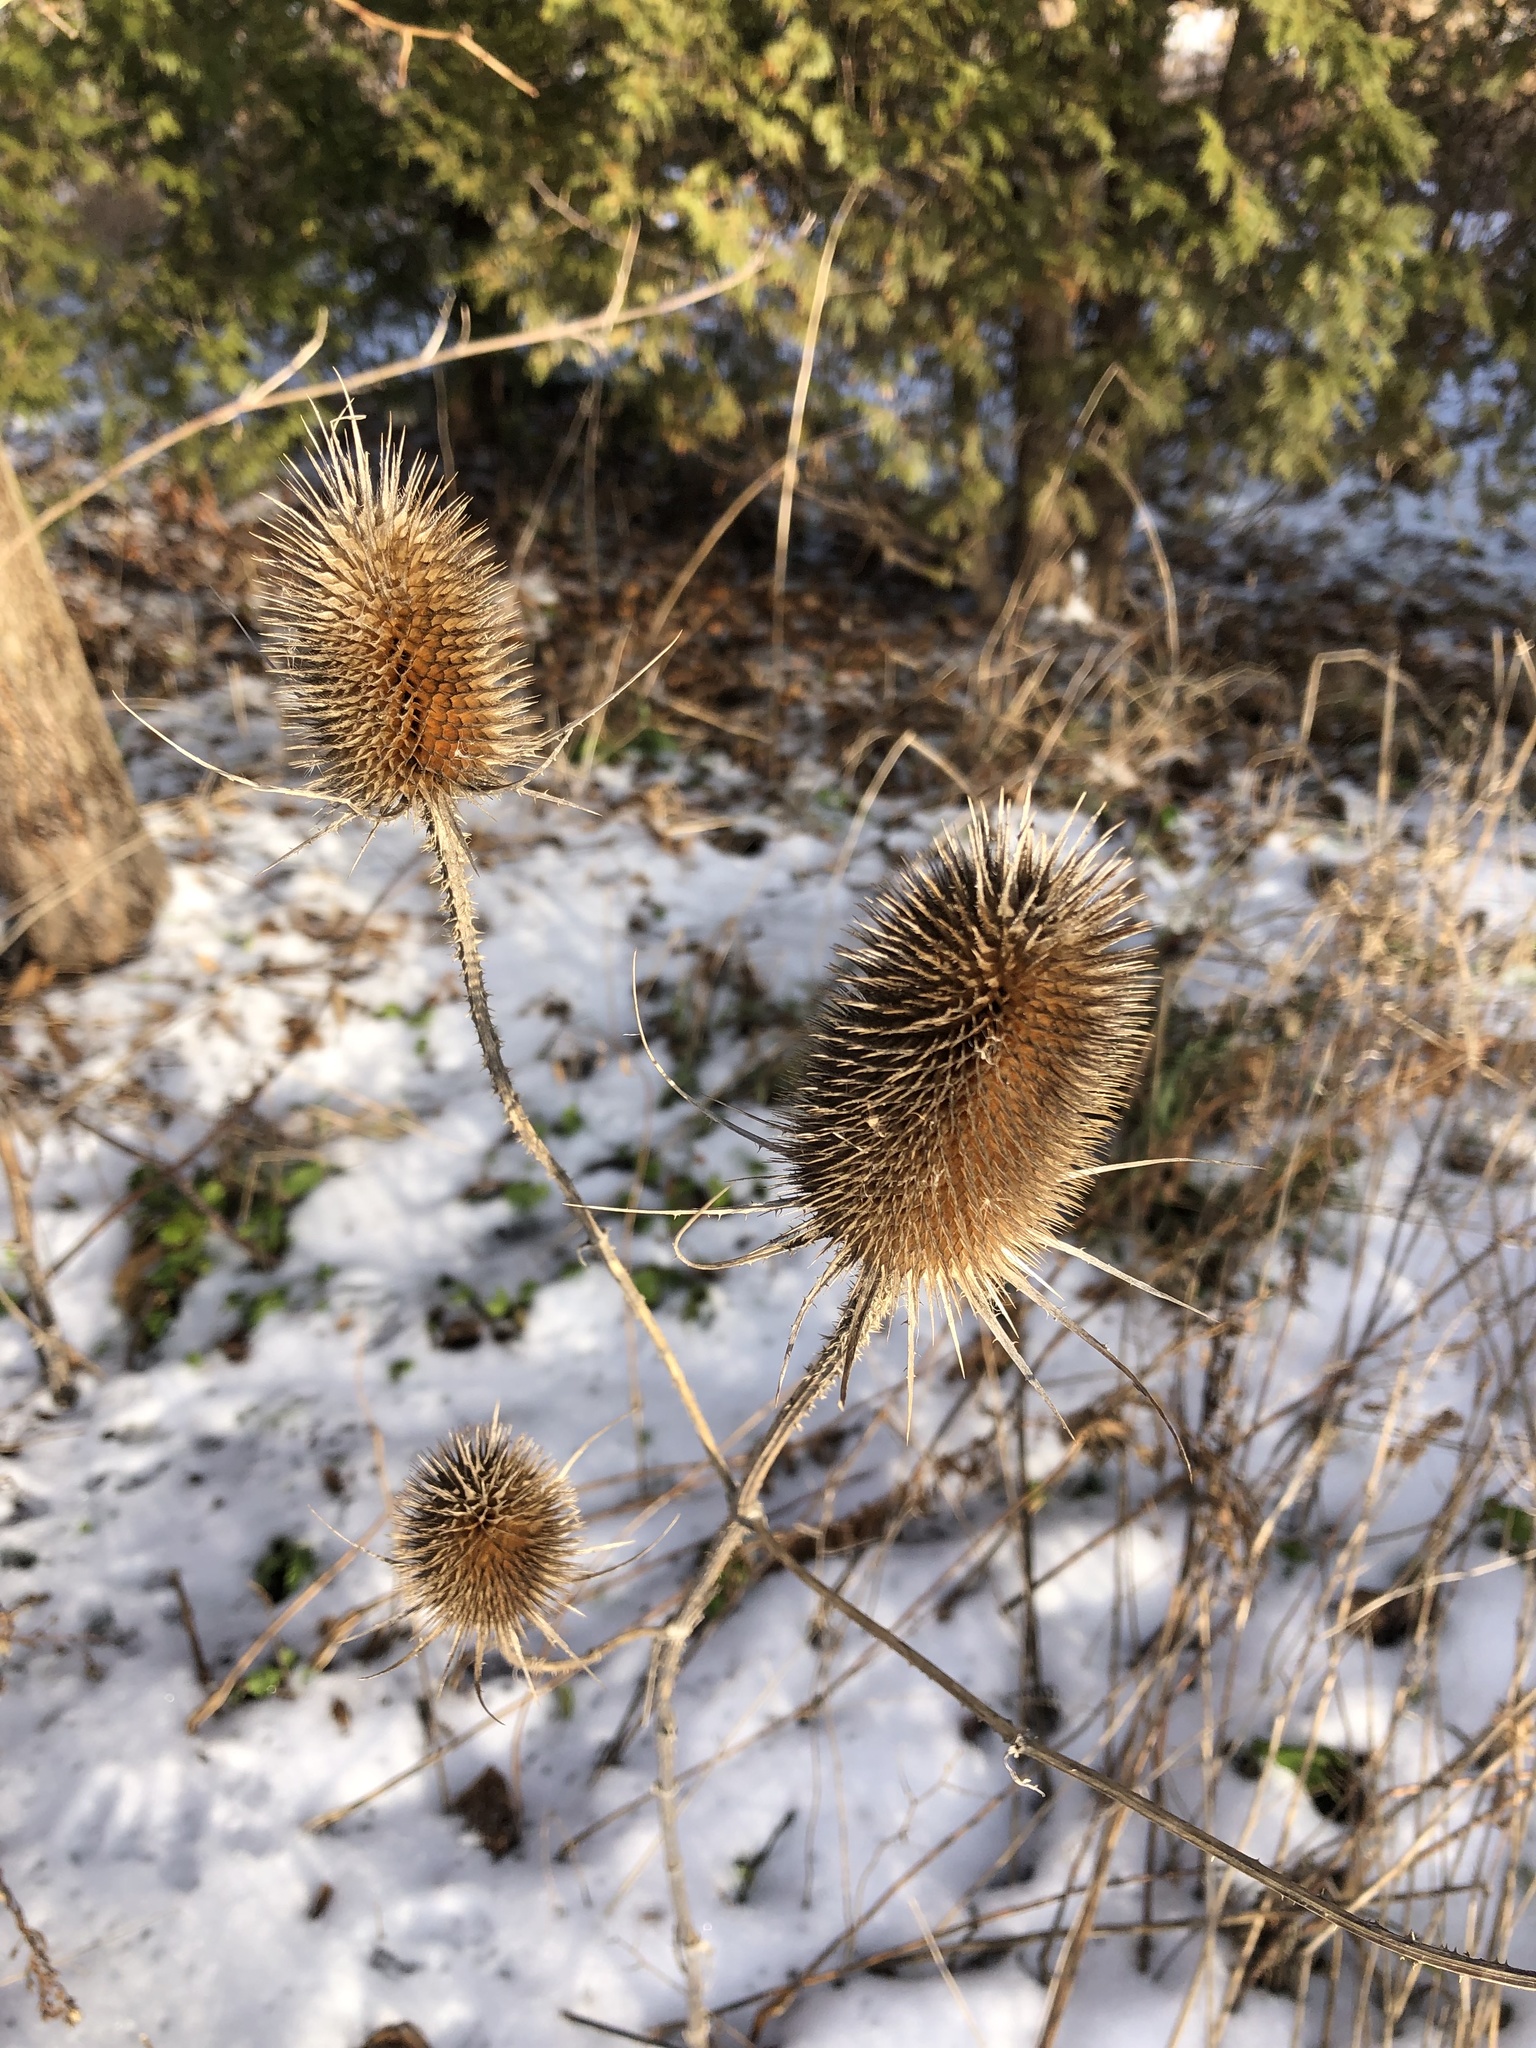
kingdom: Plantae
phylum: Tracheophyta
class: Magnoliopsida
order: Dipsacales
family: Caprifoliaceae
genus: Dipsacus
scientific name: Dipsacus fullonum
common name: Teasel
